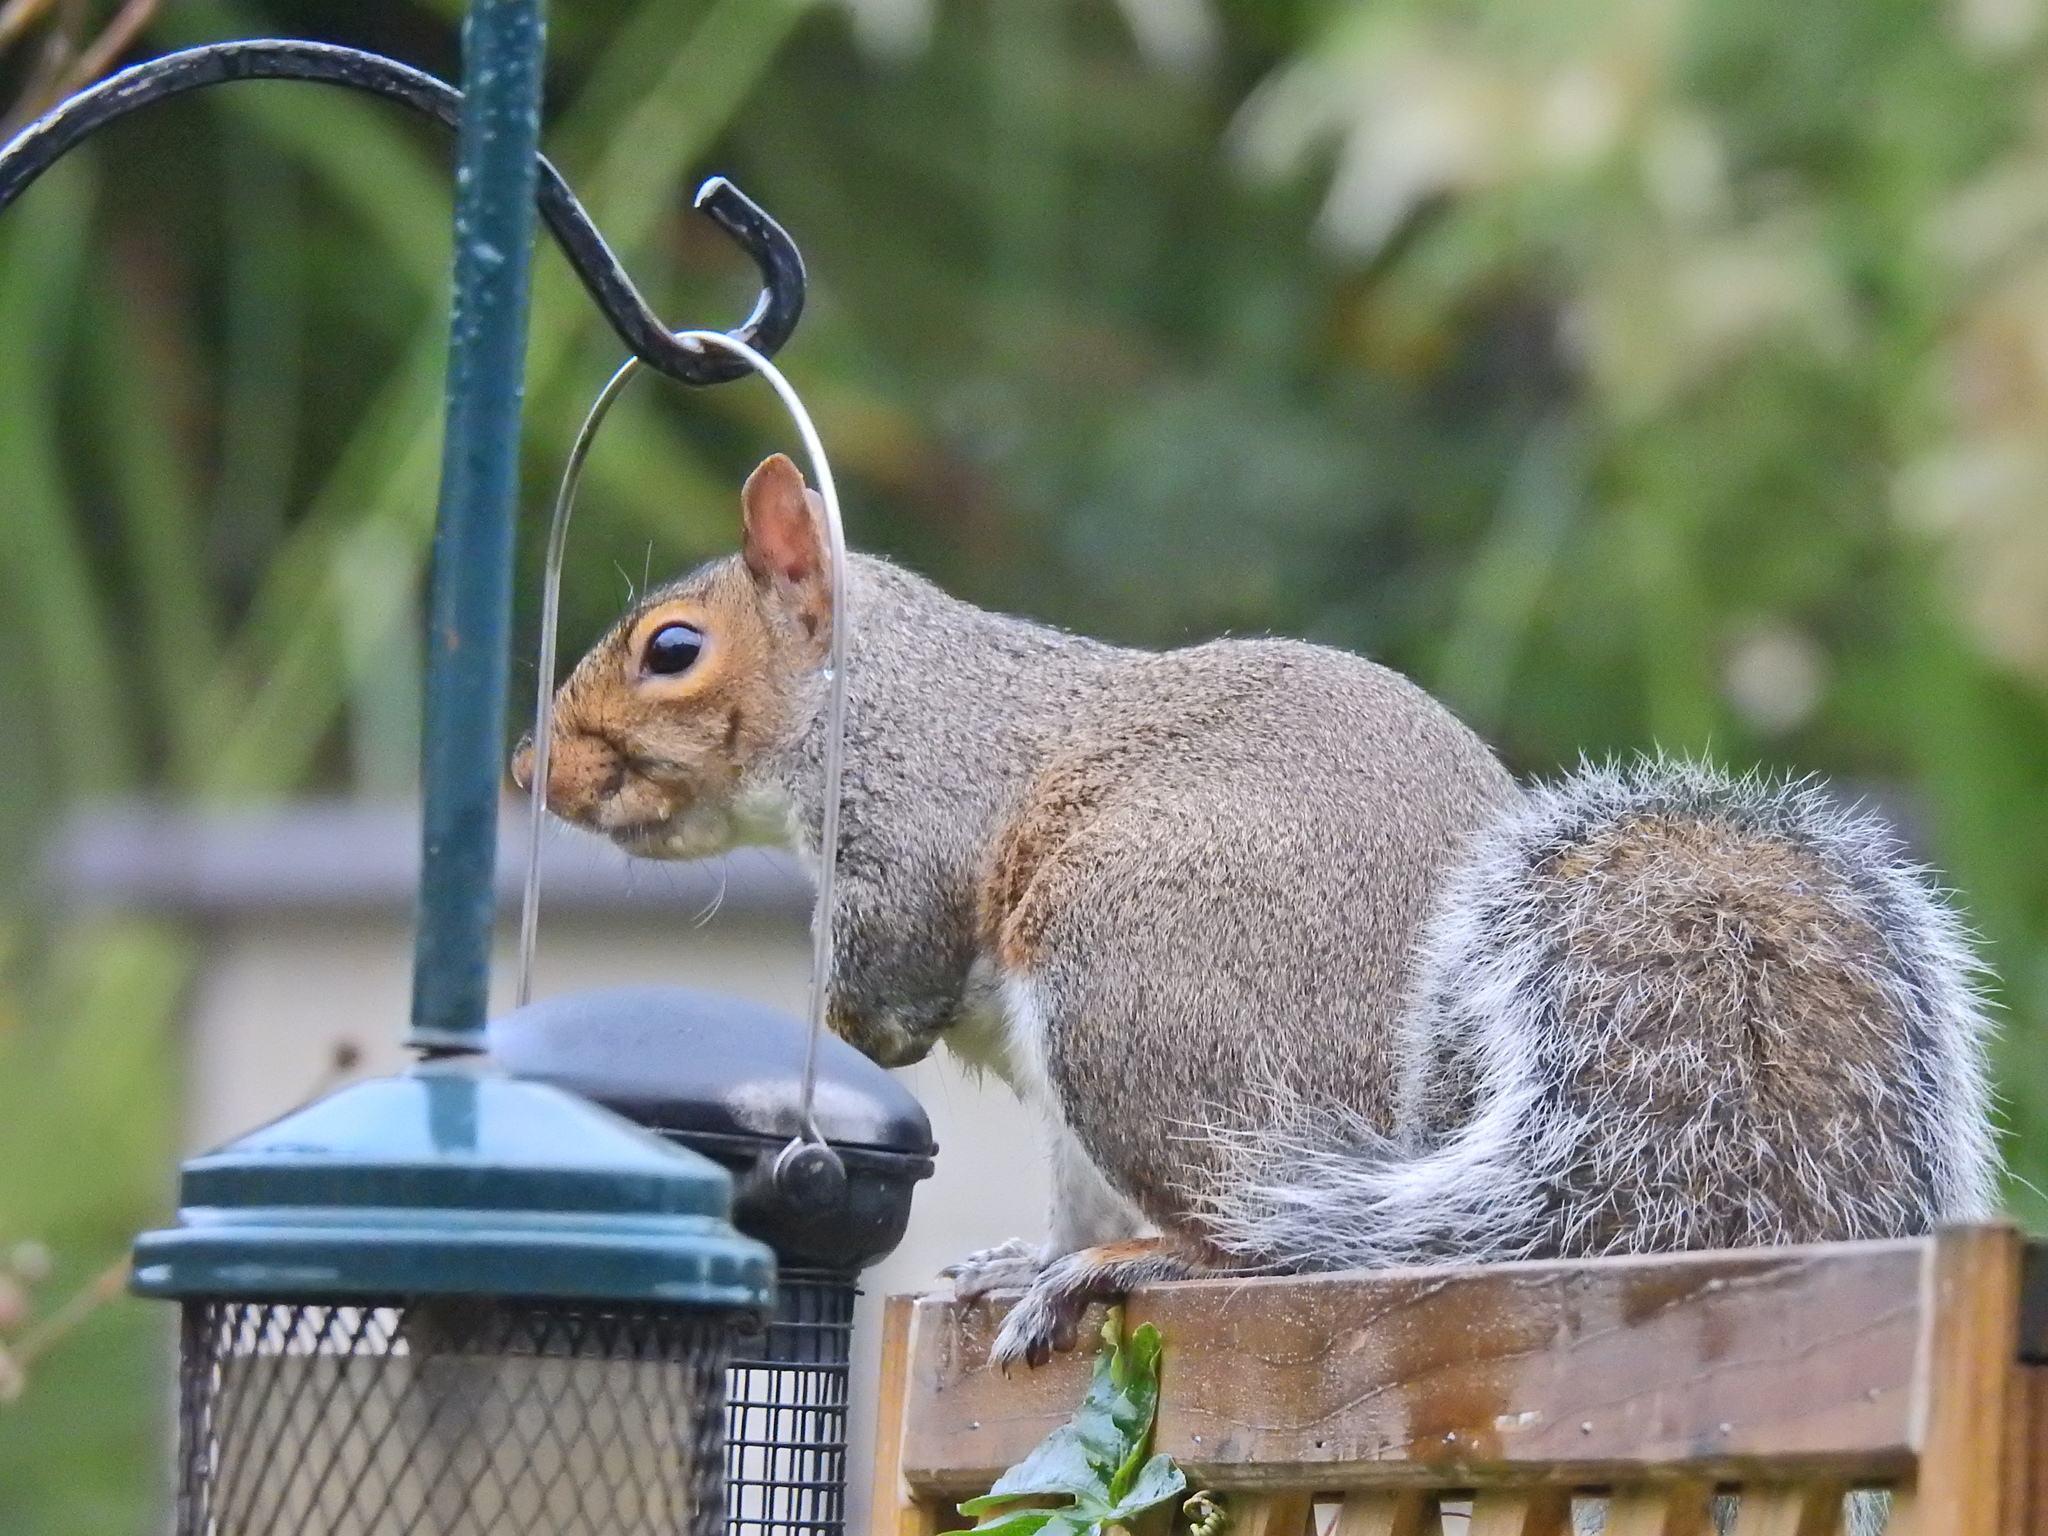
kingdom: Animalia
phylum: Chordata
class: Mammalia
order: Rodentia
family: Sciuridae
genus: Sciurus
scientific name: Sciurus carolinensis
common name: Eastern gray squirrel
